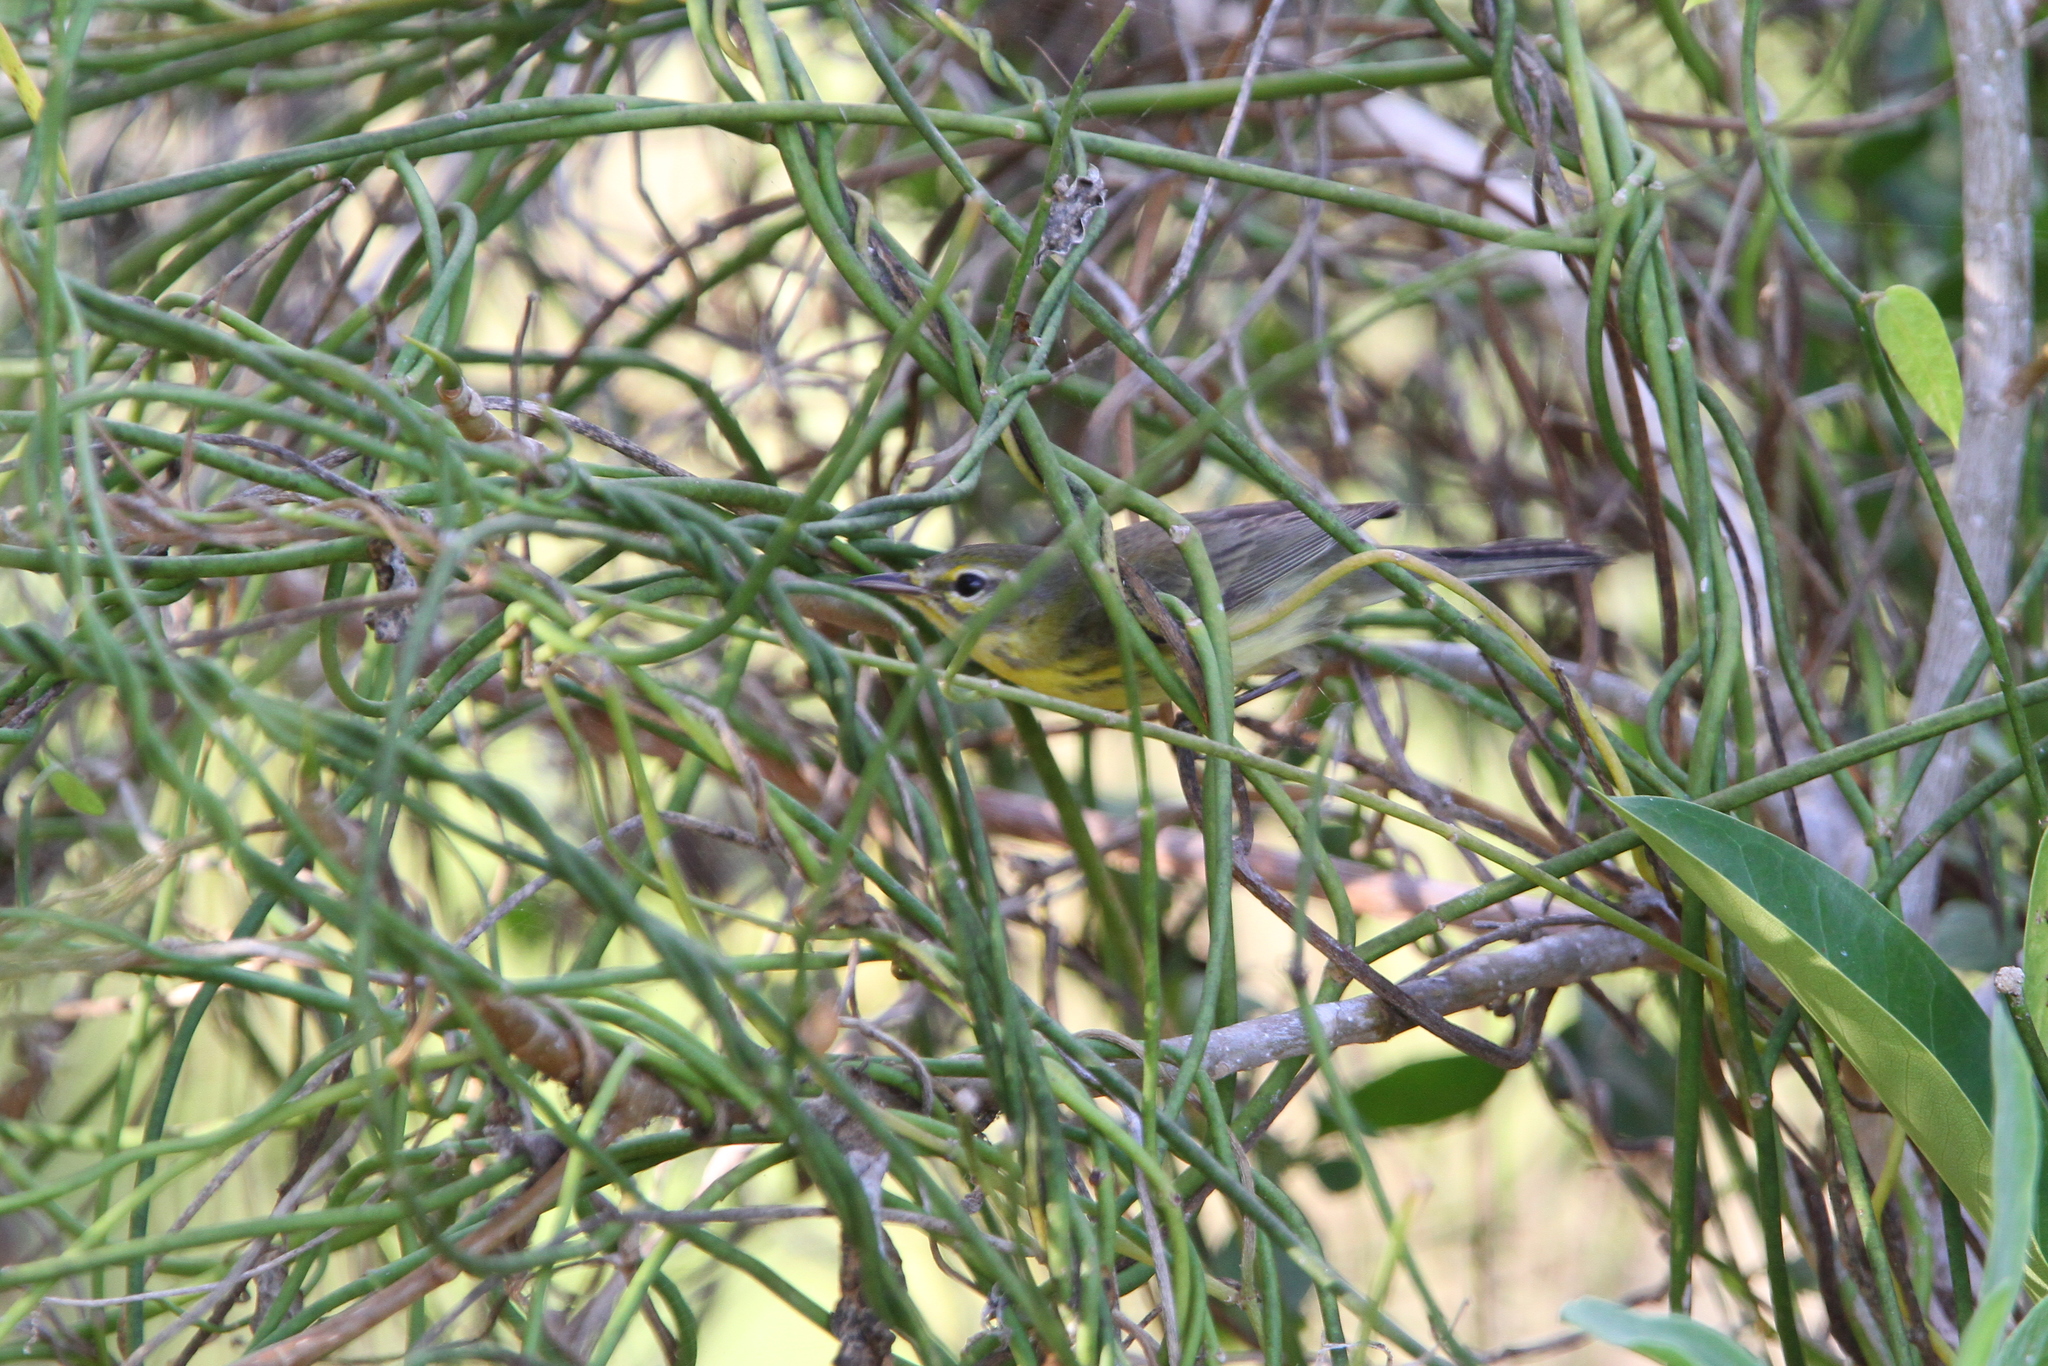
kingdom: Animalia
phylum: Chordata
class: Aves
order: Passeriformes
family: Parulidae
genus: Setophaga
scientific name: Setophaga discolor
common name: Prairie warbler
